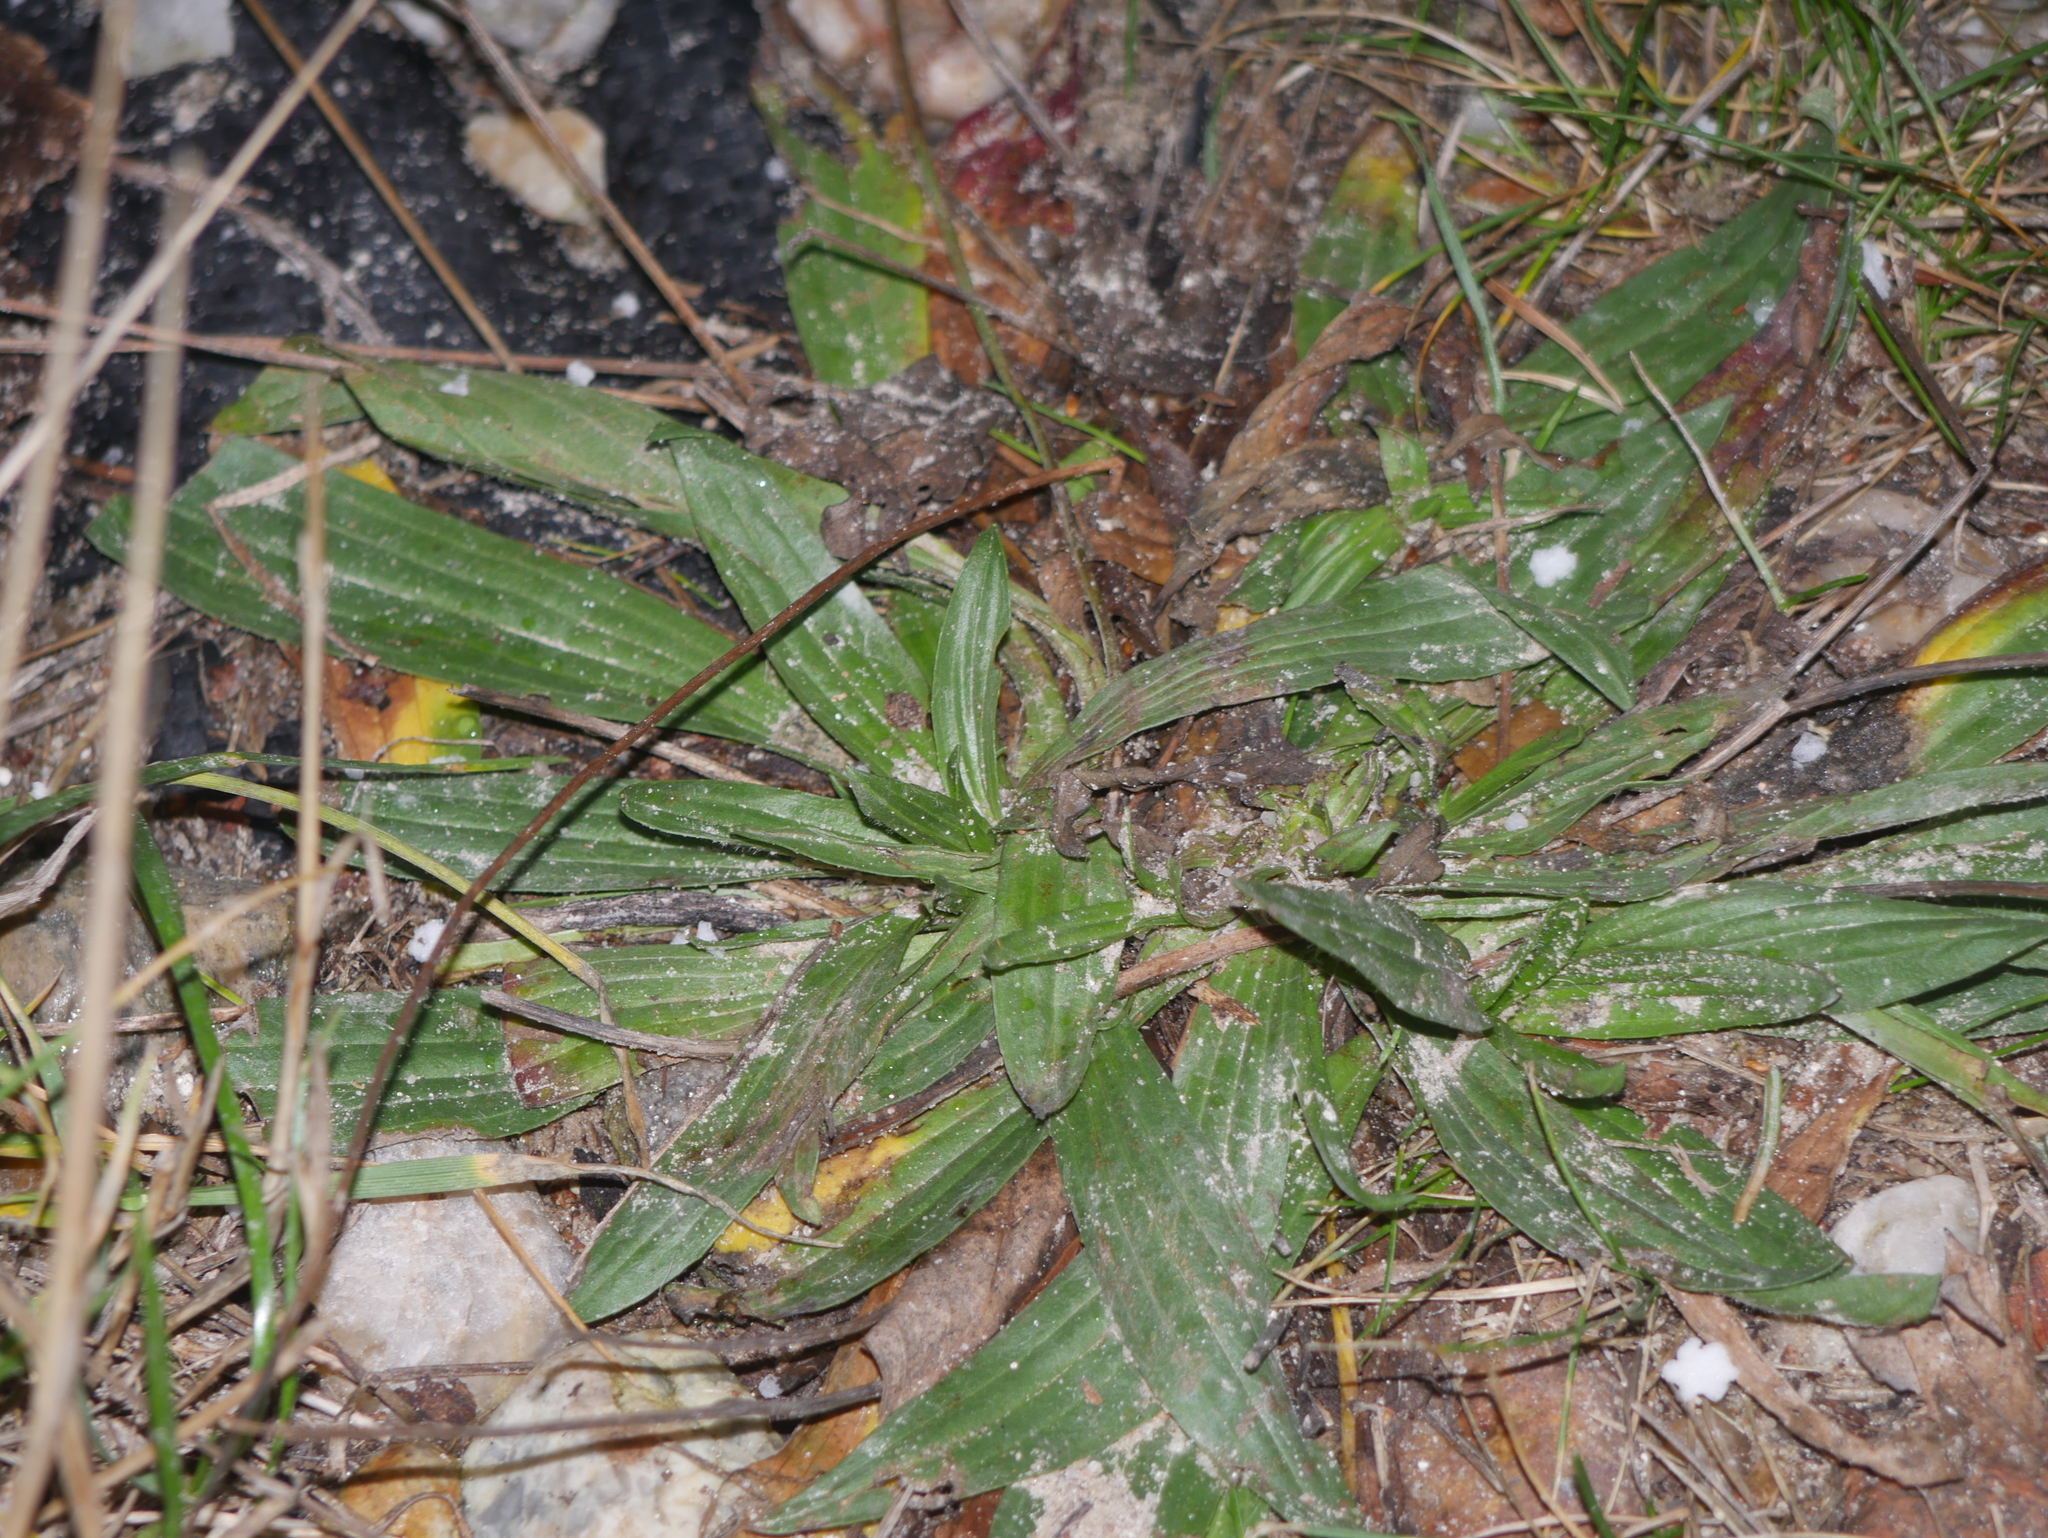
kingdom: Plantae
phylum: Tracheophyta
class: Magnoliopsida
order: Lamiales
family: Plantaginaceae
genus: Plantago
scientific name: Plantago lanceolata
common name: Ribwort plantain
